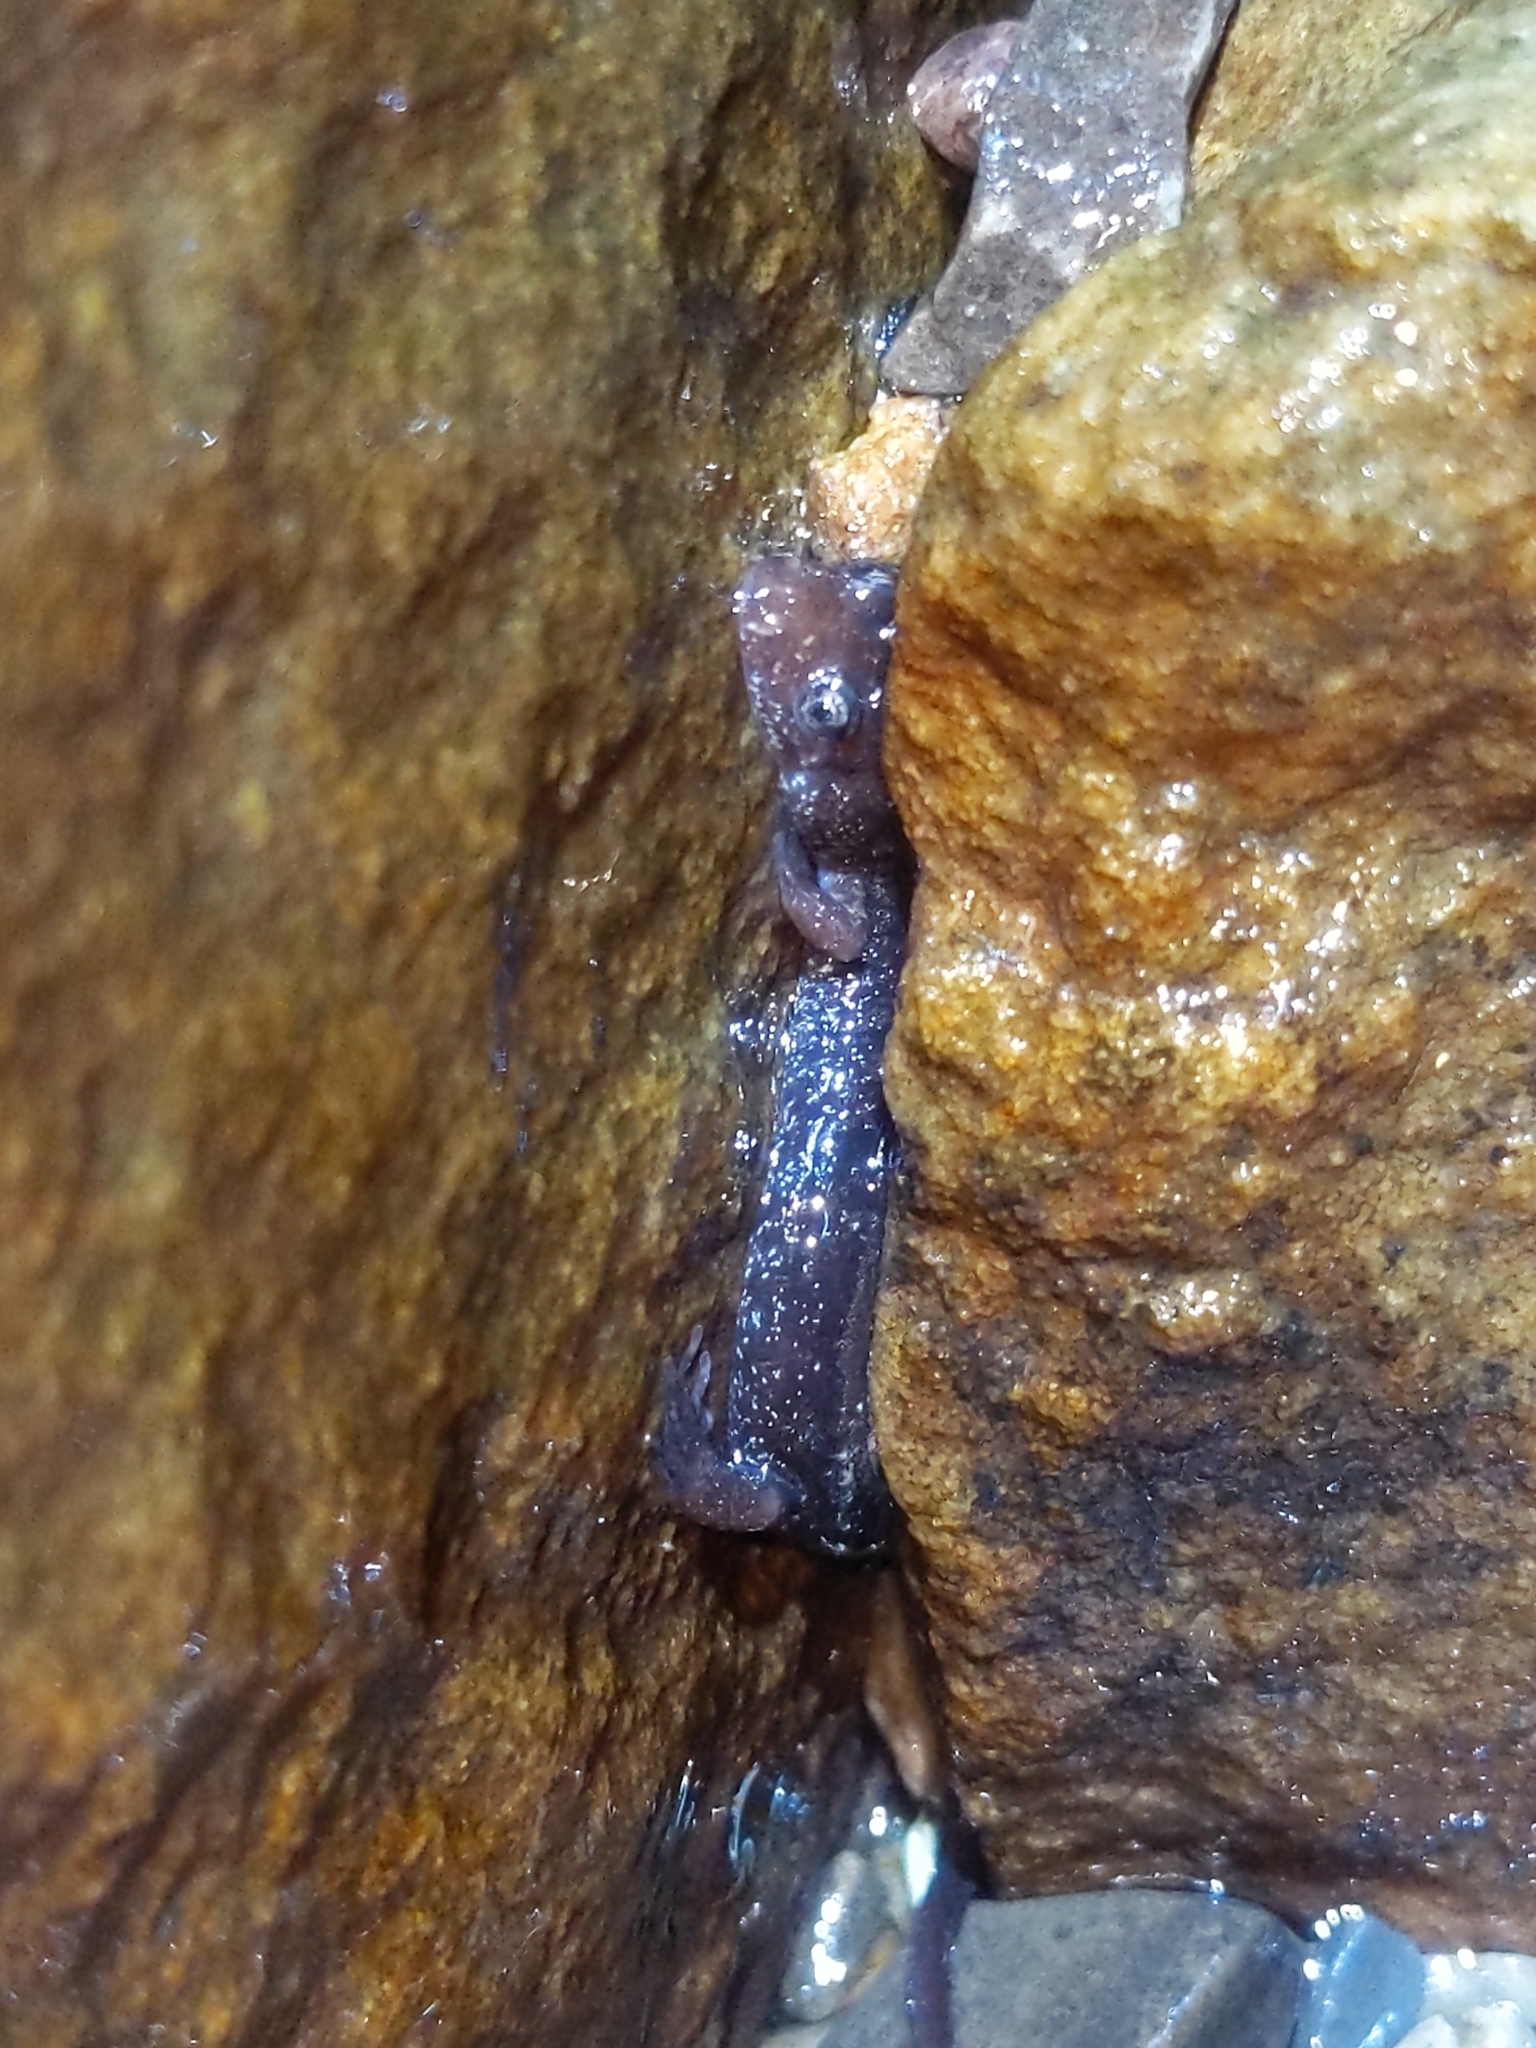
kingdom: Animalia
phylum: Chordata
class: Amphibia
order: Caudata
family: Plethodontidae
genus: Desmognathus
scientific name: Desmognathus fuscus
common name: Northern dusky salamander
